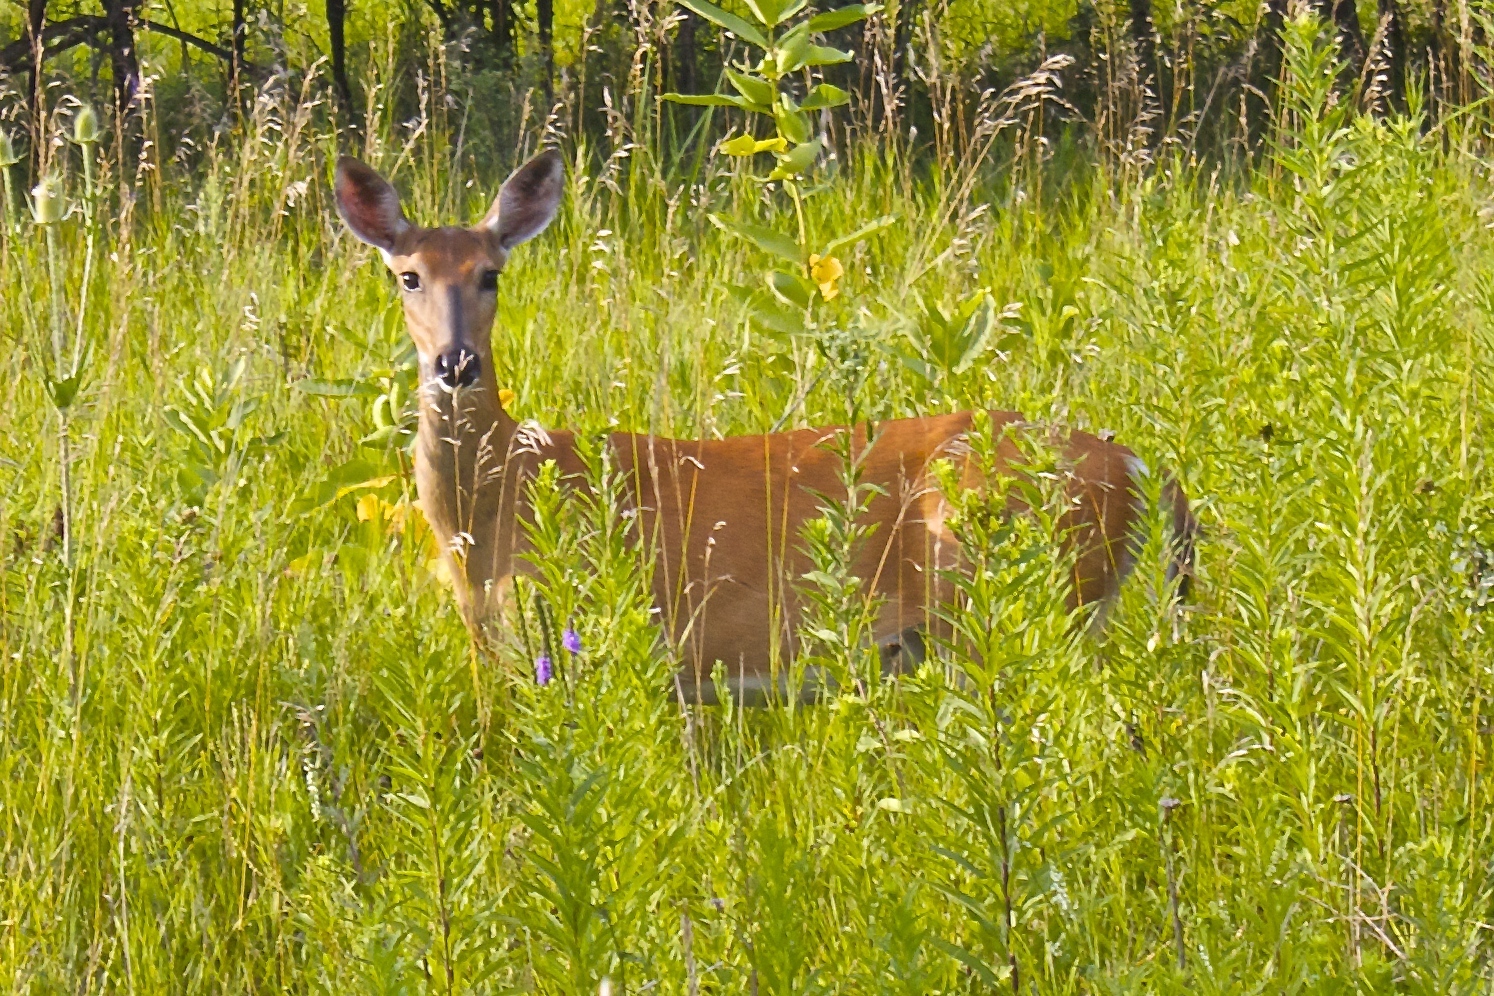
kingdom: Animalia
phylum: Chordata
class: Mammalia
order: Artiodactyla
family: Cervidae
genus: Odocoileus
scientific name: Odocoileus virginianus
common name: White-tailed deer
